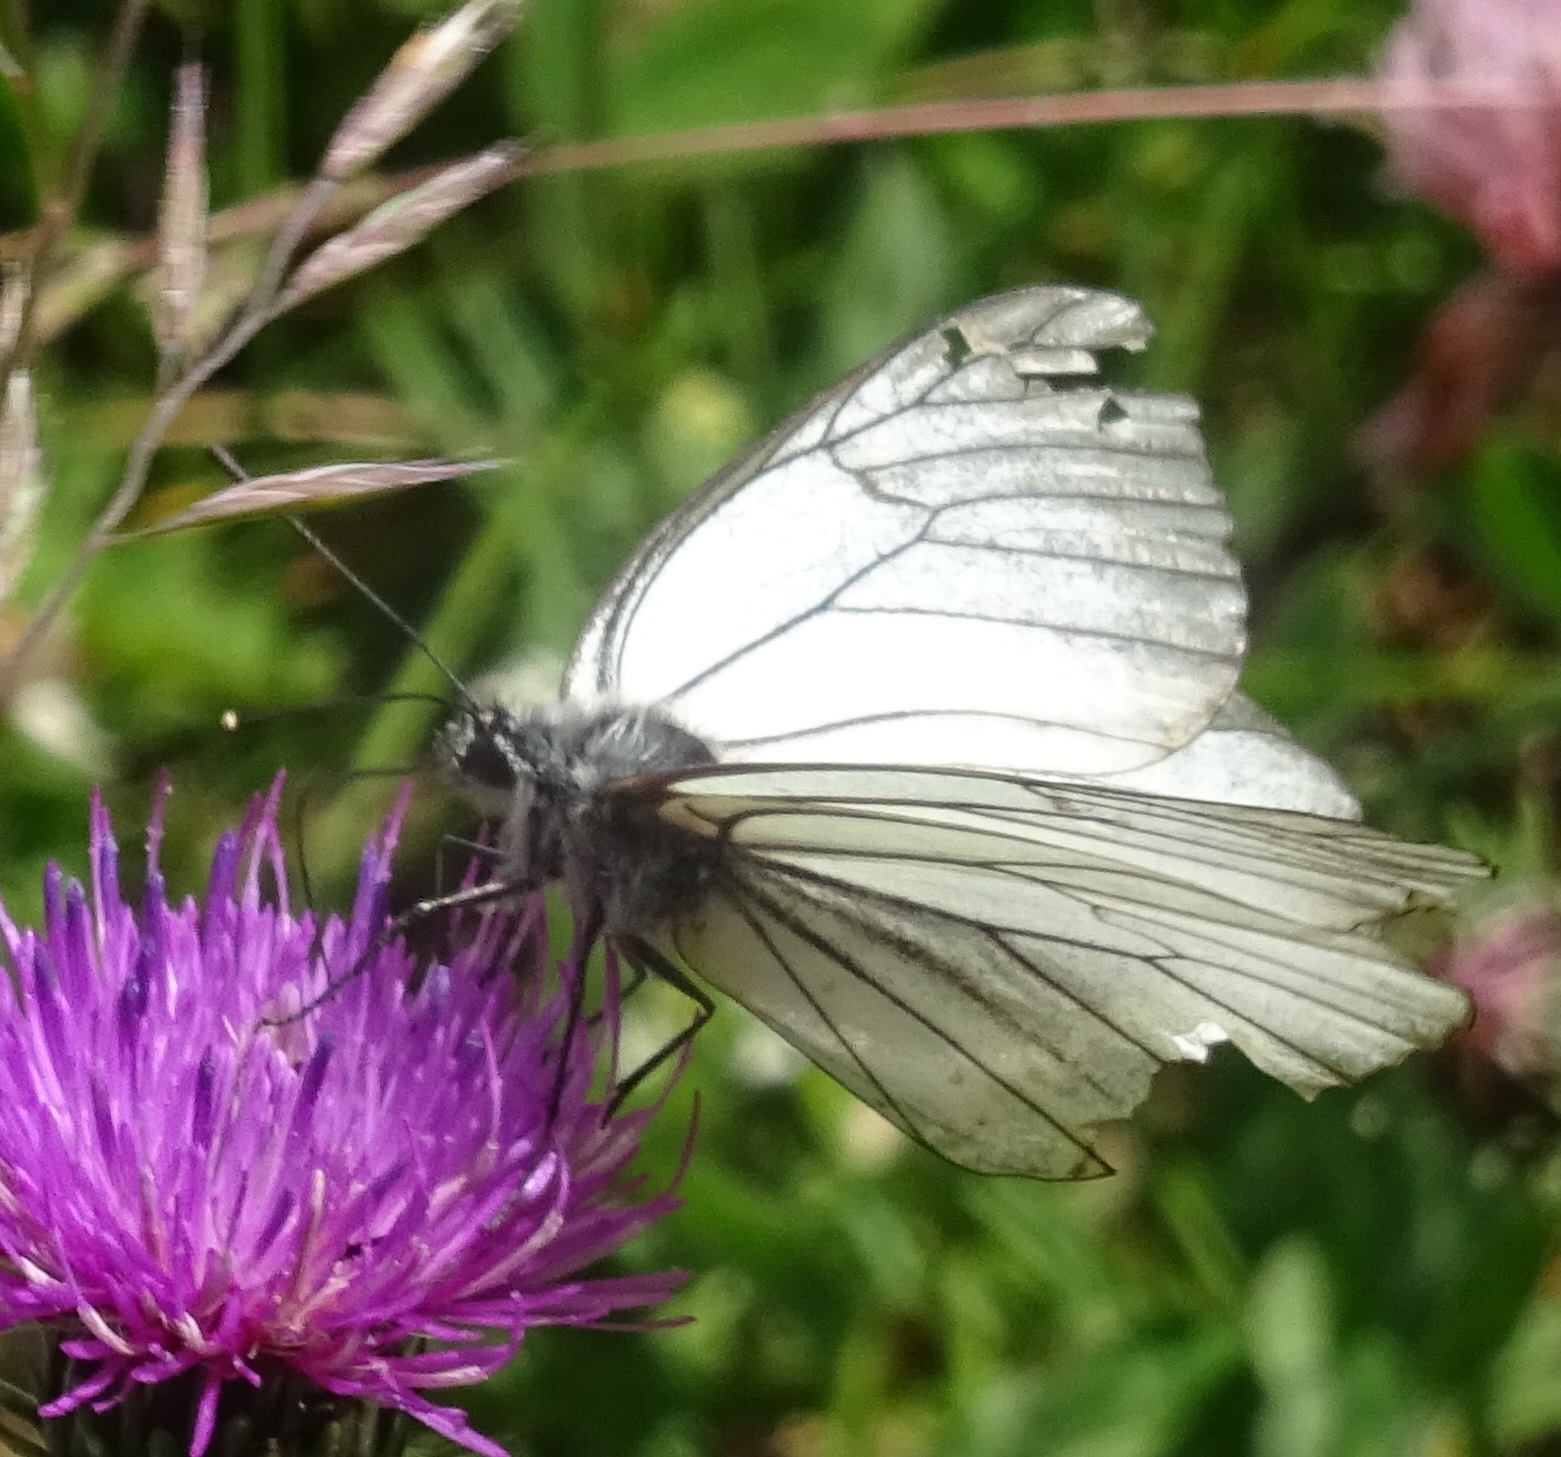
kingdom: Animalia
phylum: Arthropoda
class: Insecta
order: Lepidoptera
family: Pieridae
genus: Aporia
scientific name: Aporia crataegi
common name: Black-veined white
